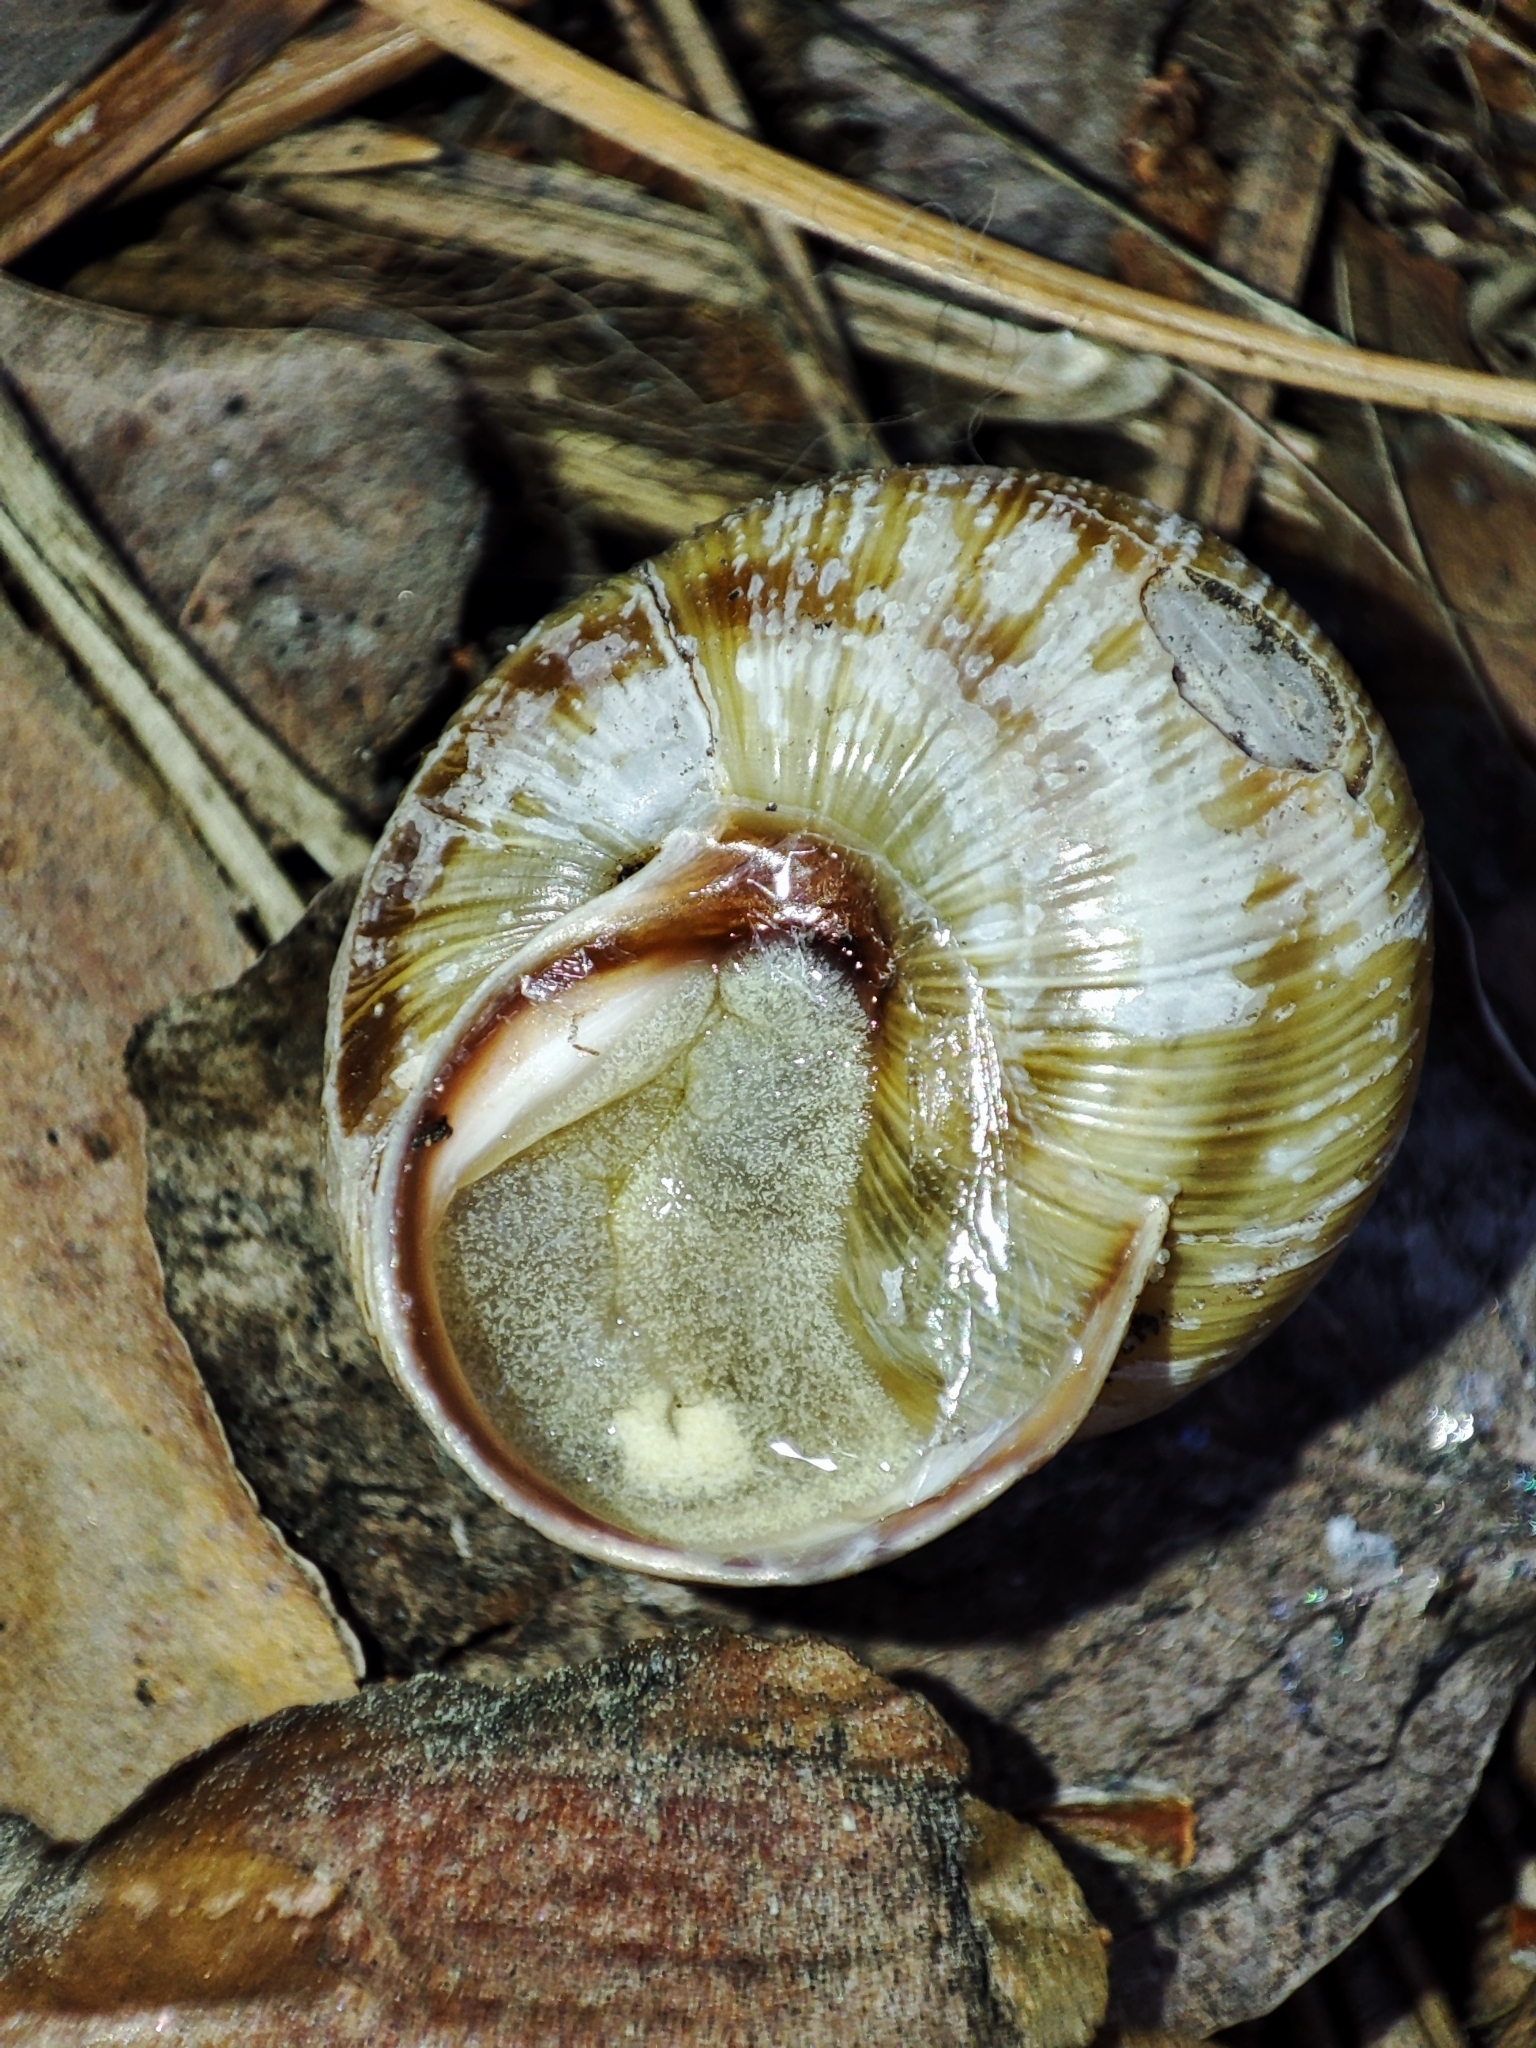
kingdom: Animalia
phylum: Mollusca
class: Gastropoda
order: Stylommatophora
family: Helicidae
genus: Caucasotachea
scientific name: Caucasotachea vindobonensis
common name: European helicid land snail
